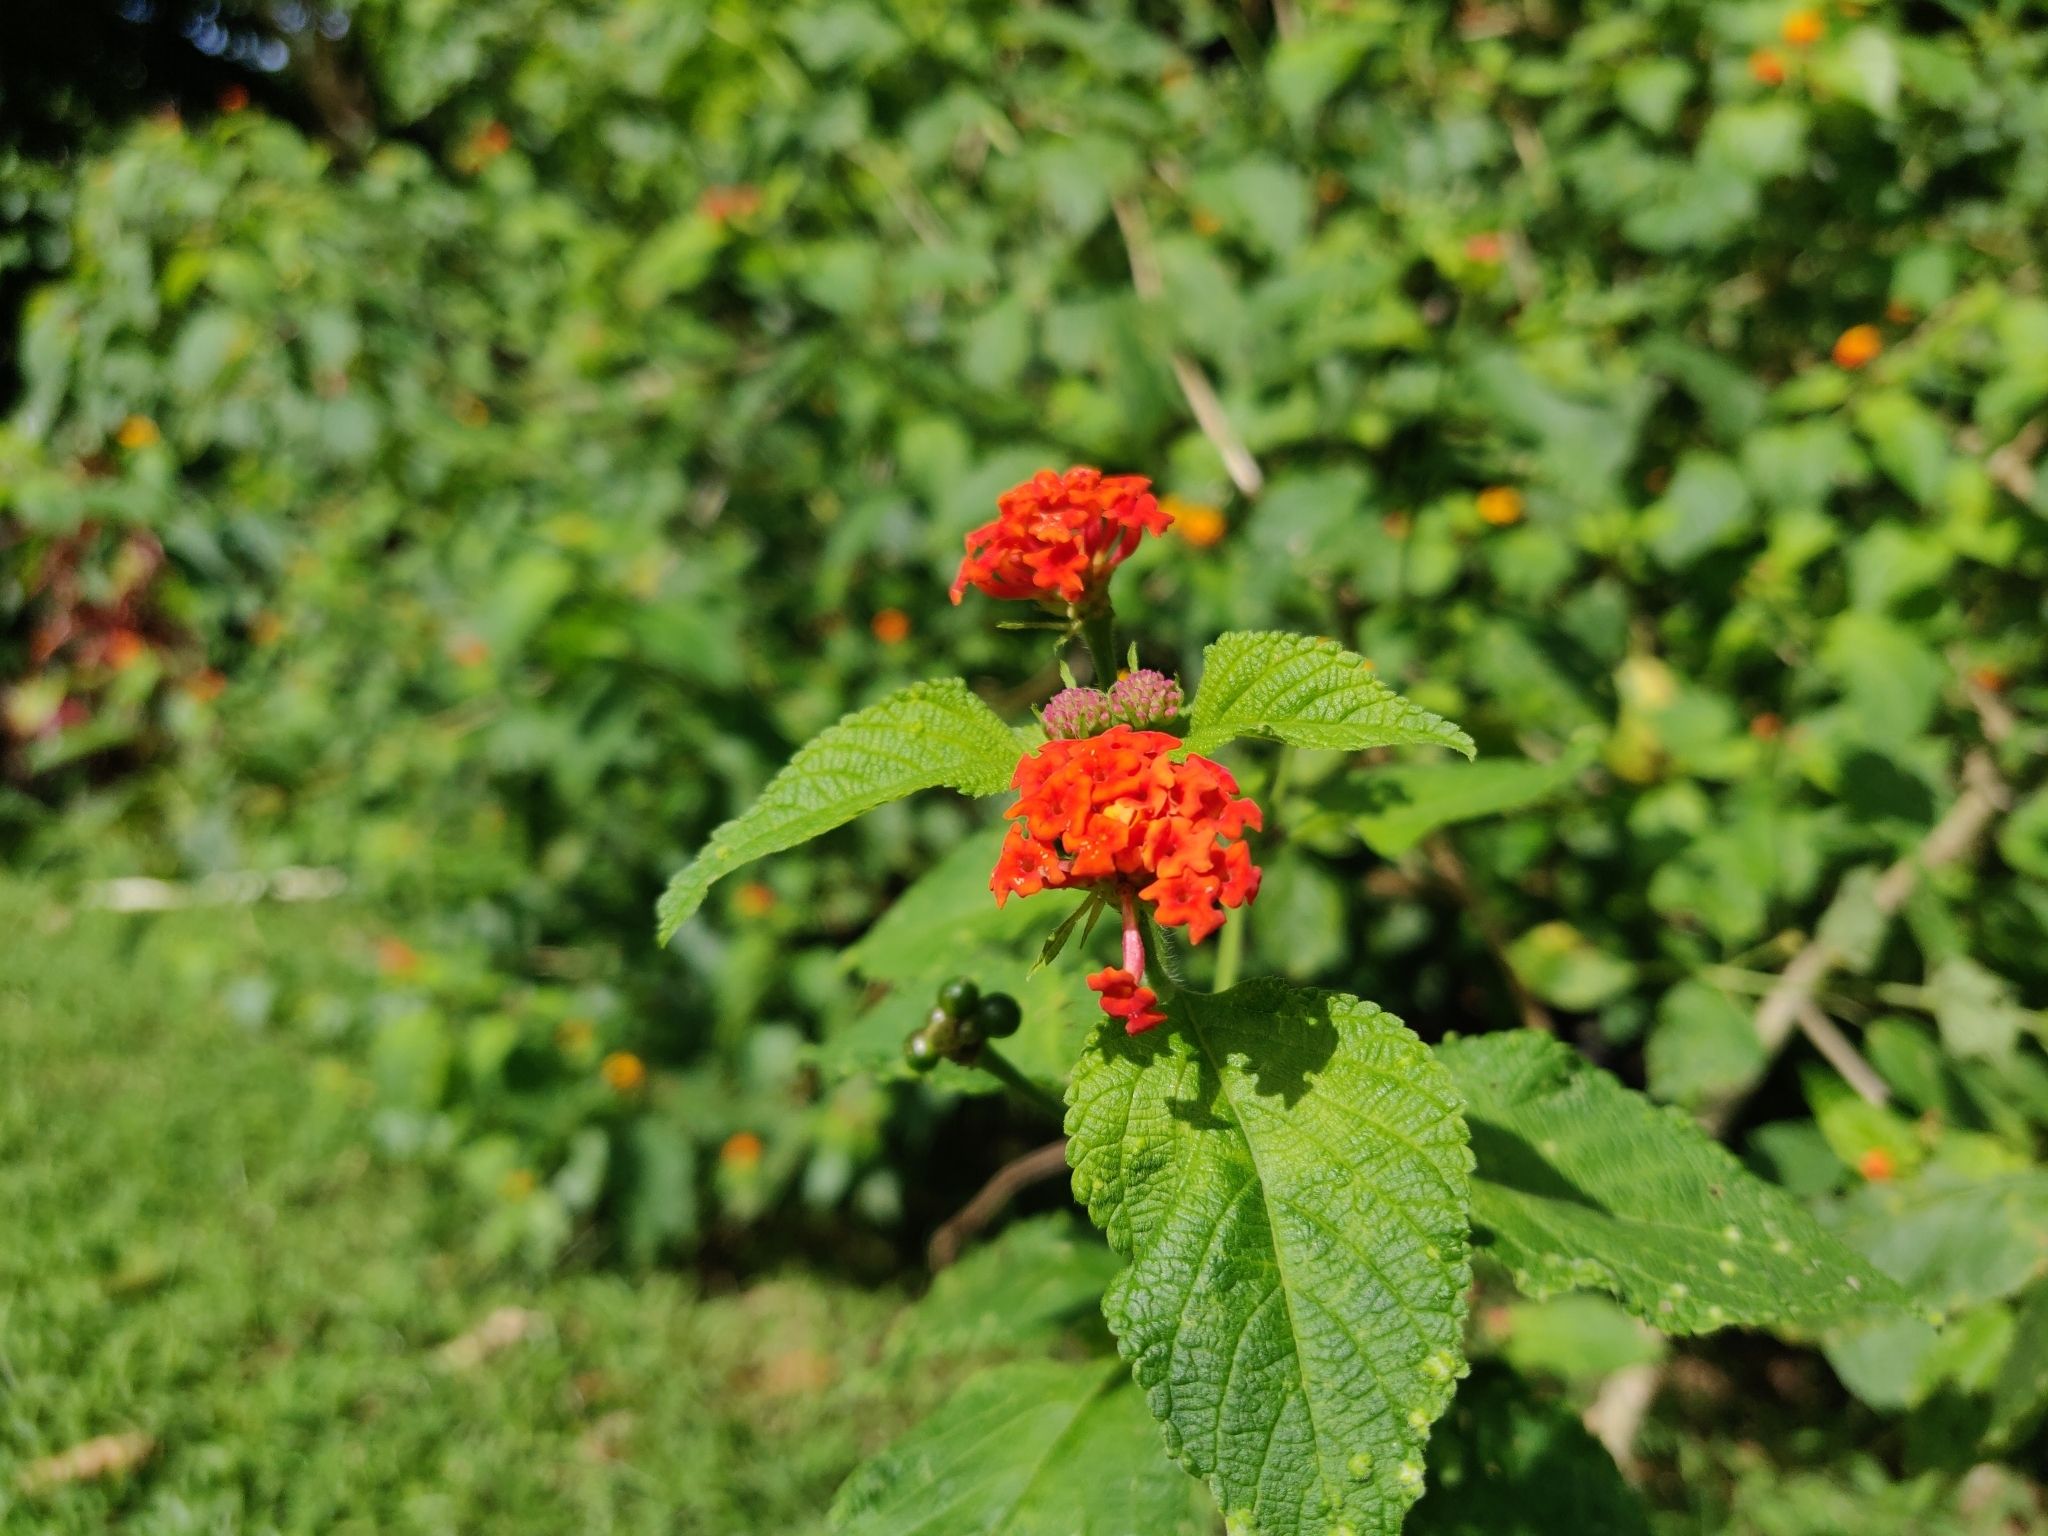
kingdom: Plantae
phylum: Tracheophyta
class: Magnoliopsida
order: Lamiales
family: Verbenaceae
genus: Lantana
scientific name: Lantana camara
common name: Lantana
